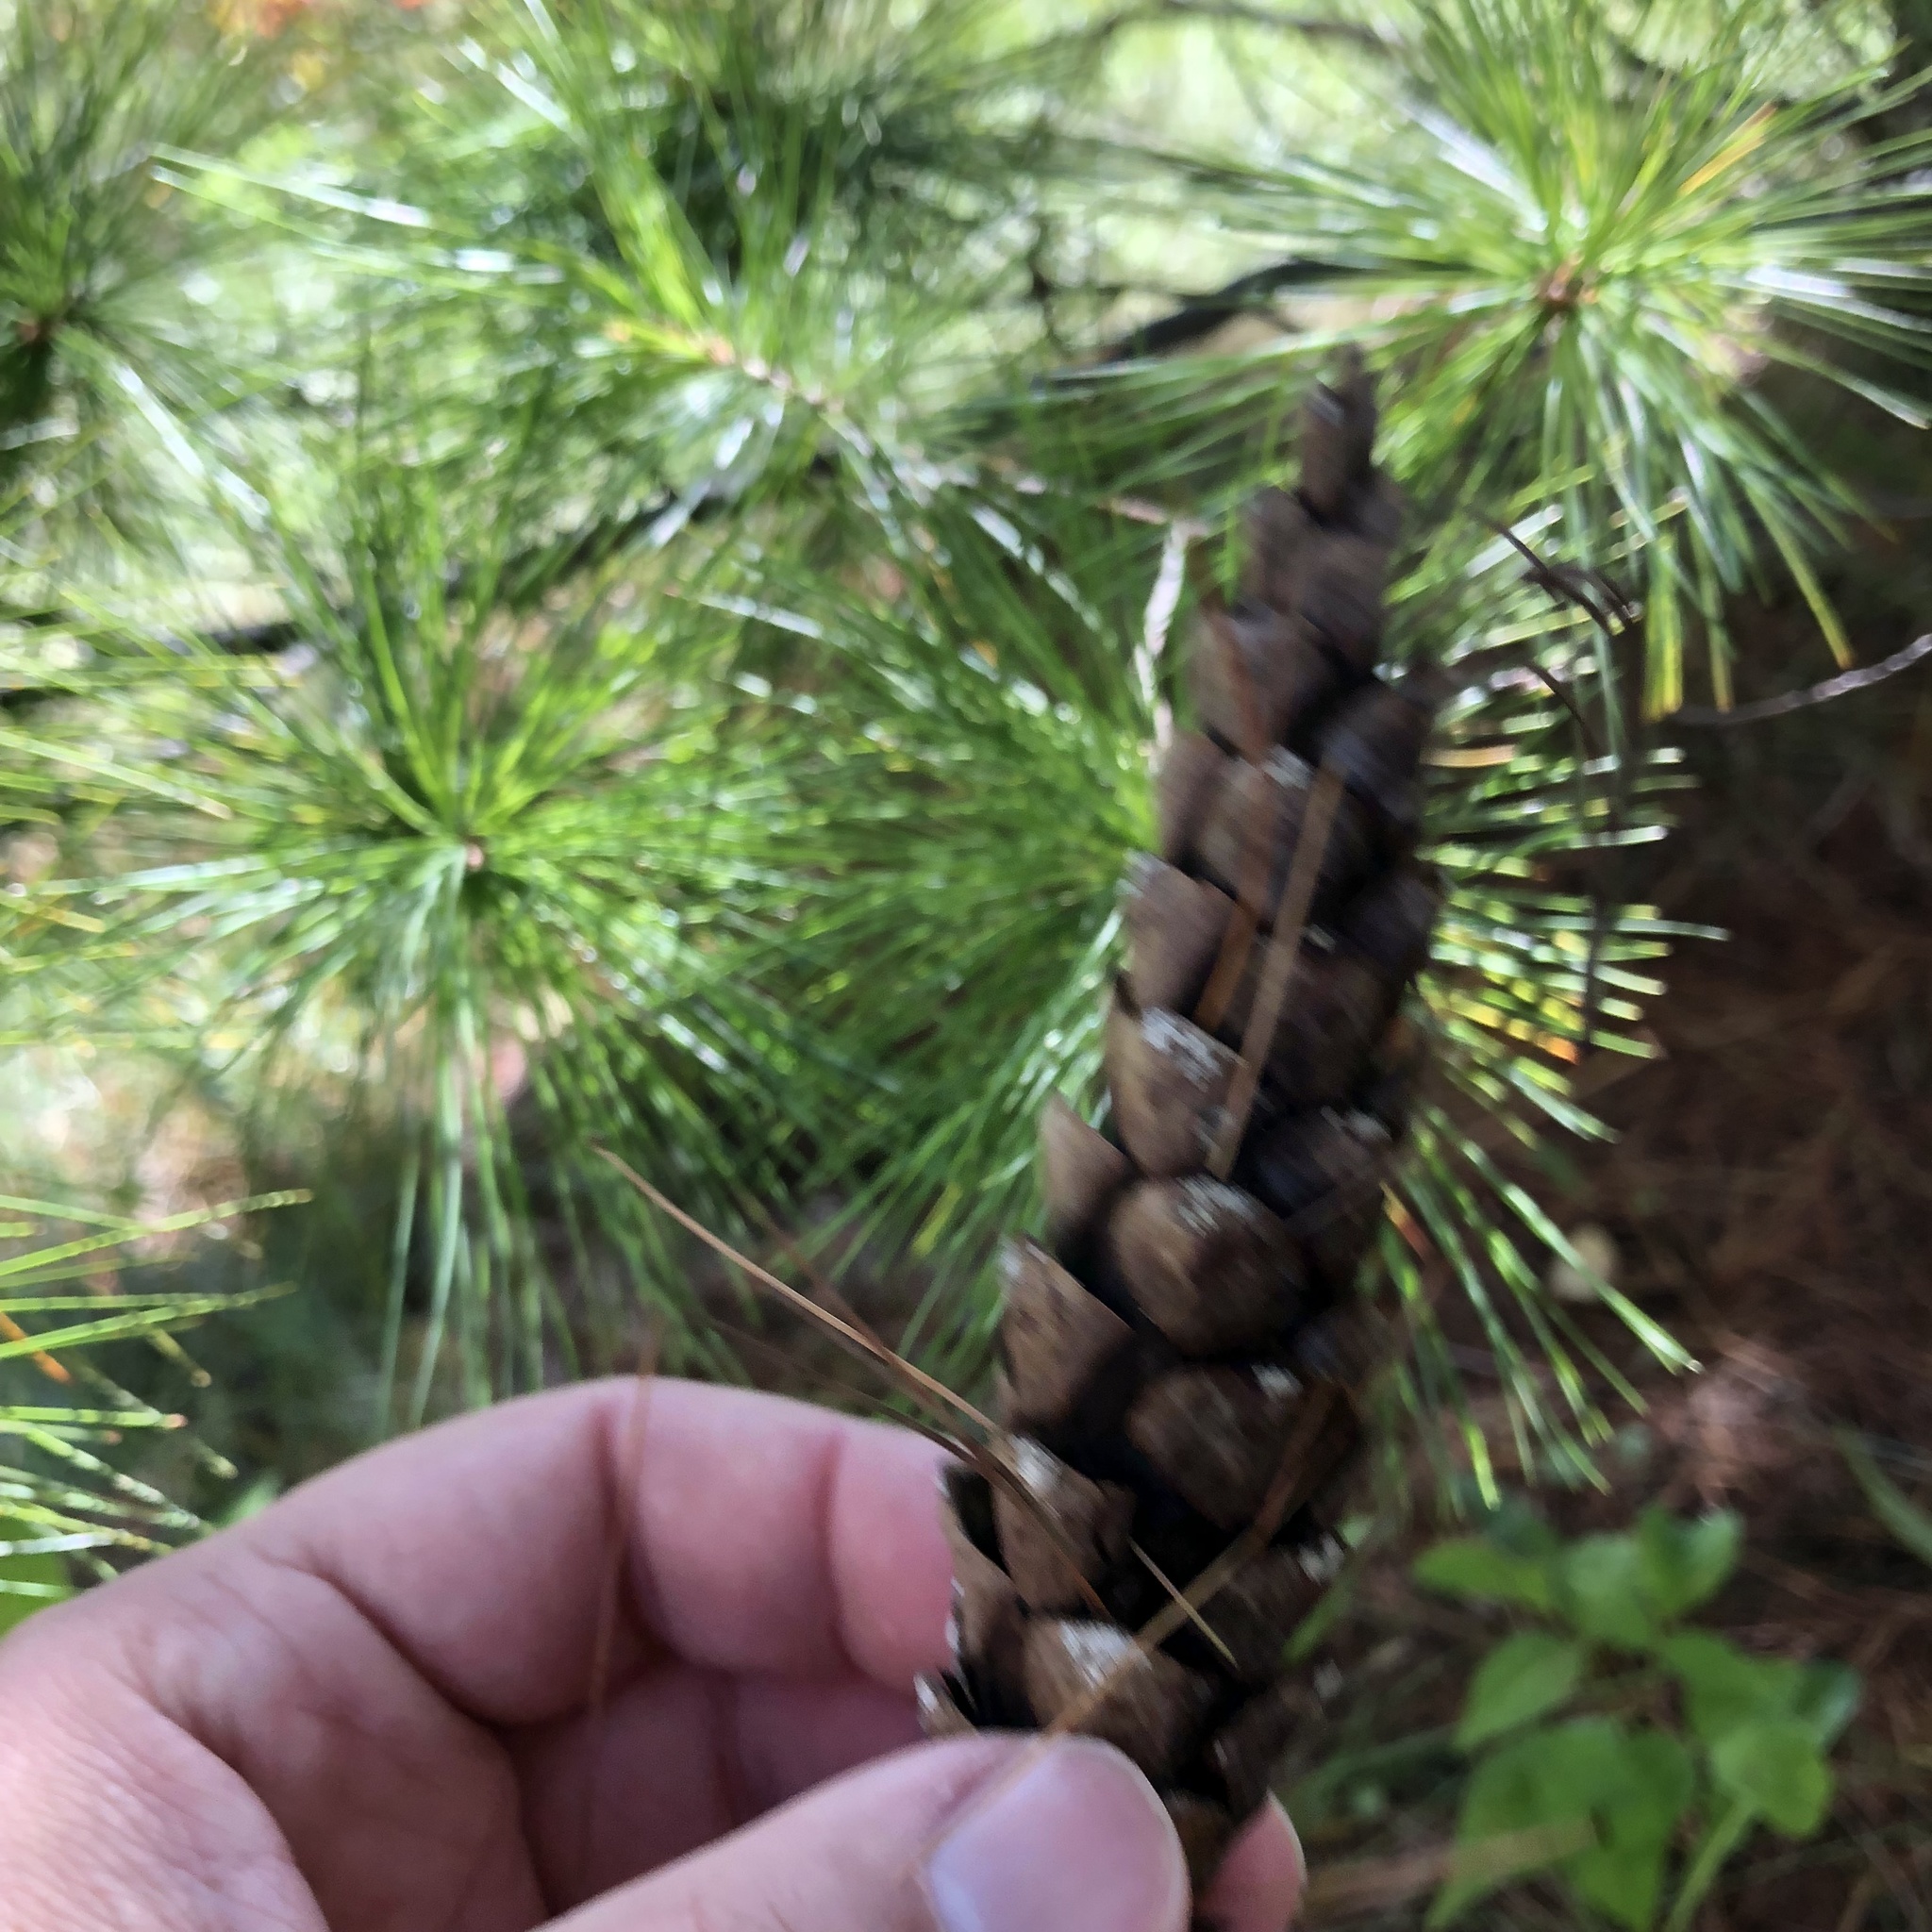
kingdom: Plantae
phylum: Tracheophyta
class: Pinopsida
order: Pinales
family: Pinaceae
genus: Pinus
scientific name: Pinus strobus
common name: Weymouth pine
